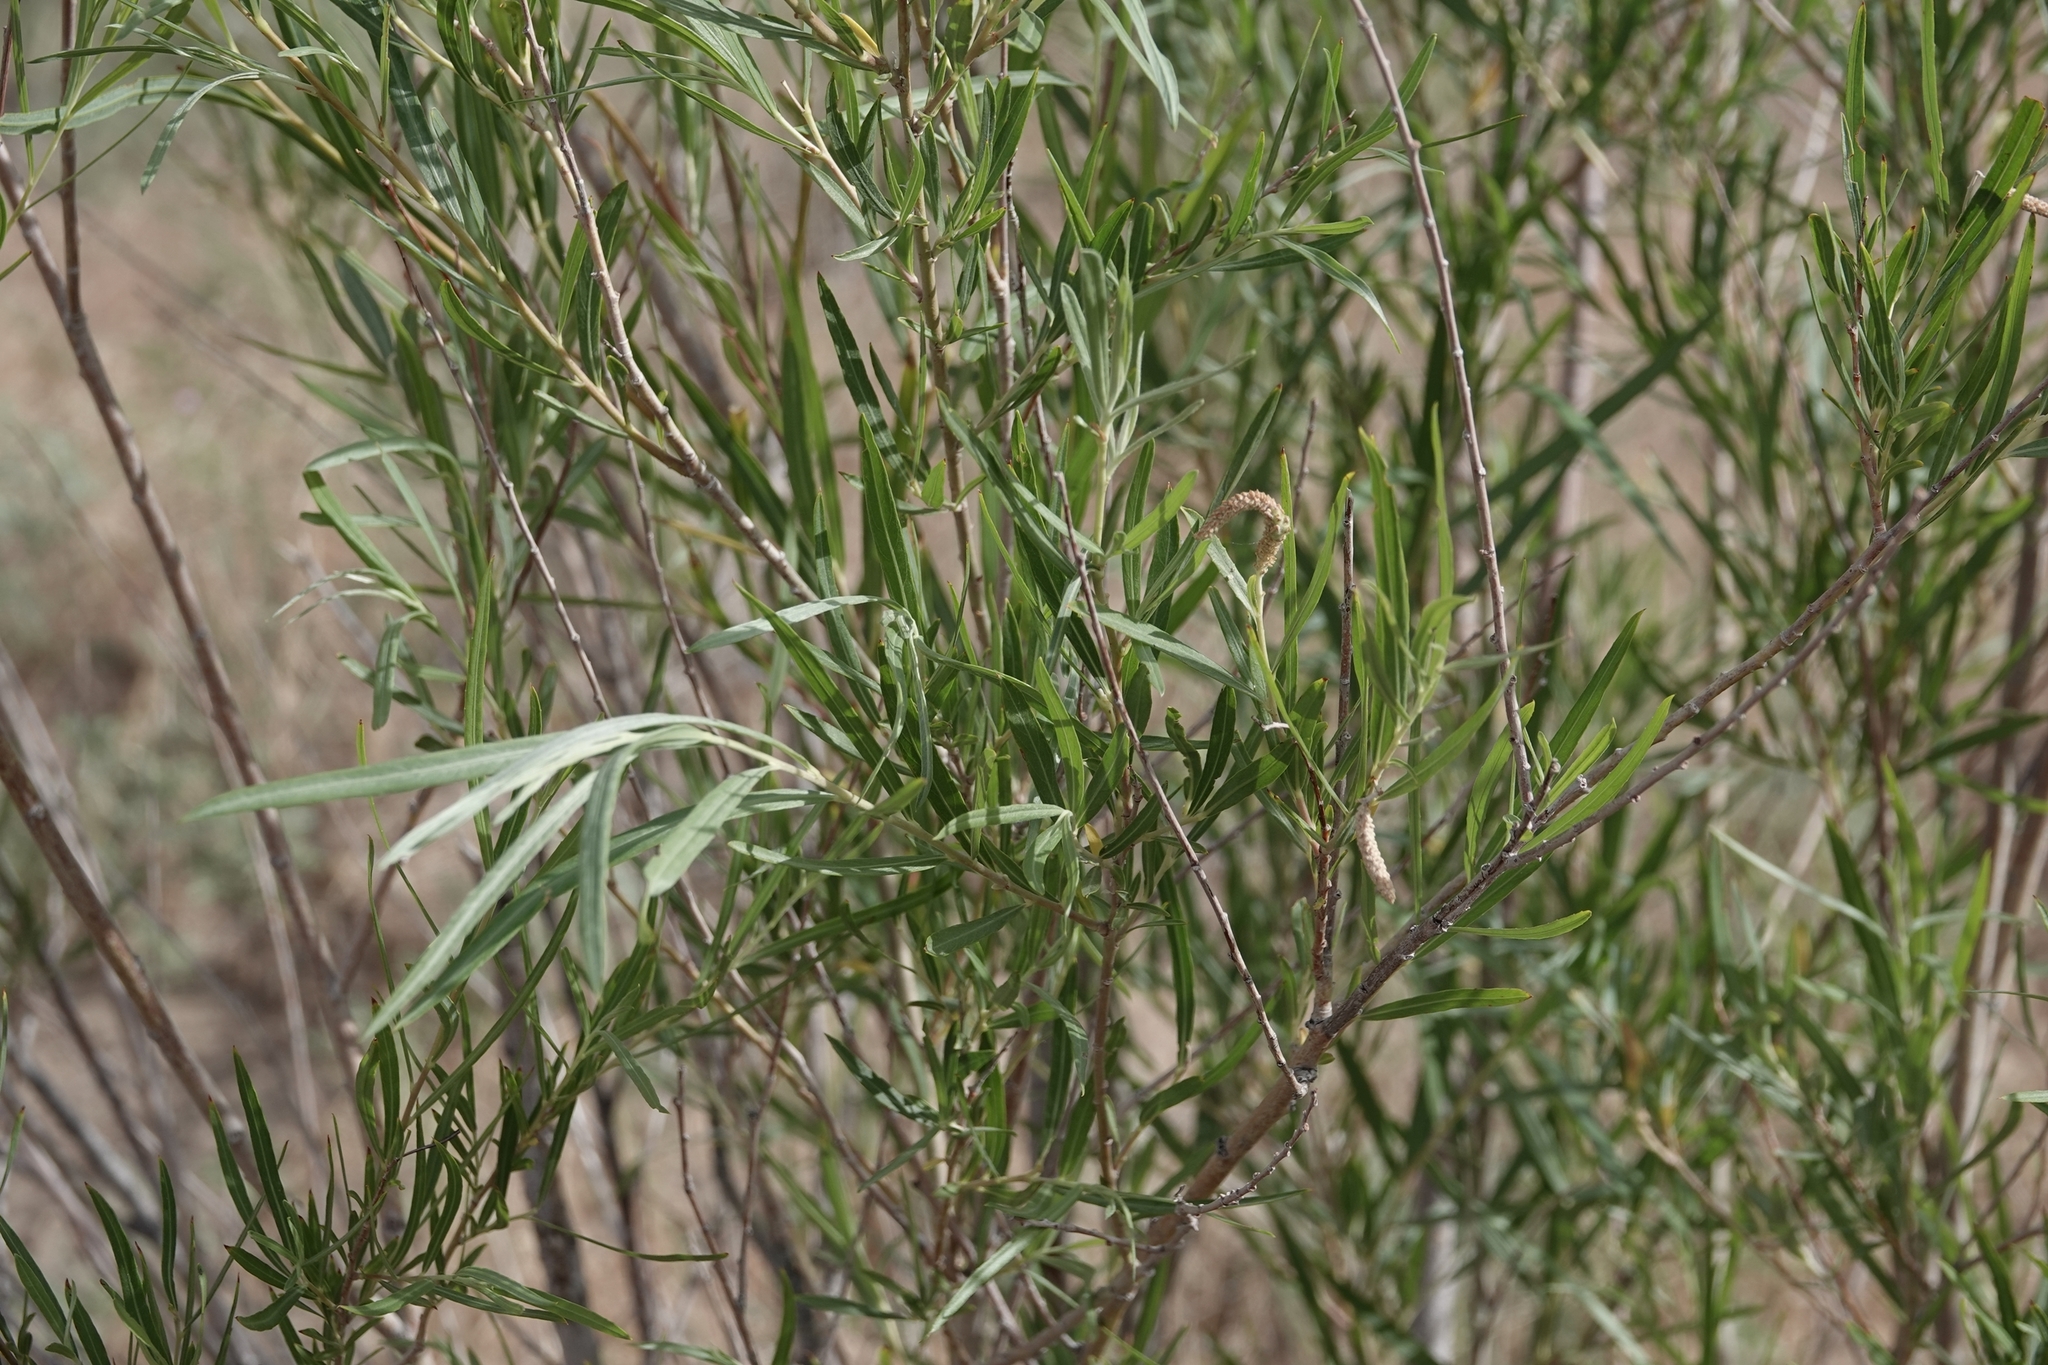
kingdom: Plantae
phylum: Tracheophyta
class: Magnoliopsida
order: Malpighiales
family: Salicaceae
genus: Salix
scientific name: Salix exigua
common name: Coyote willow
